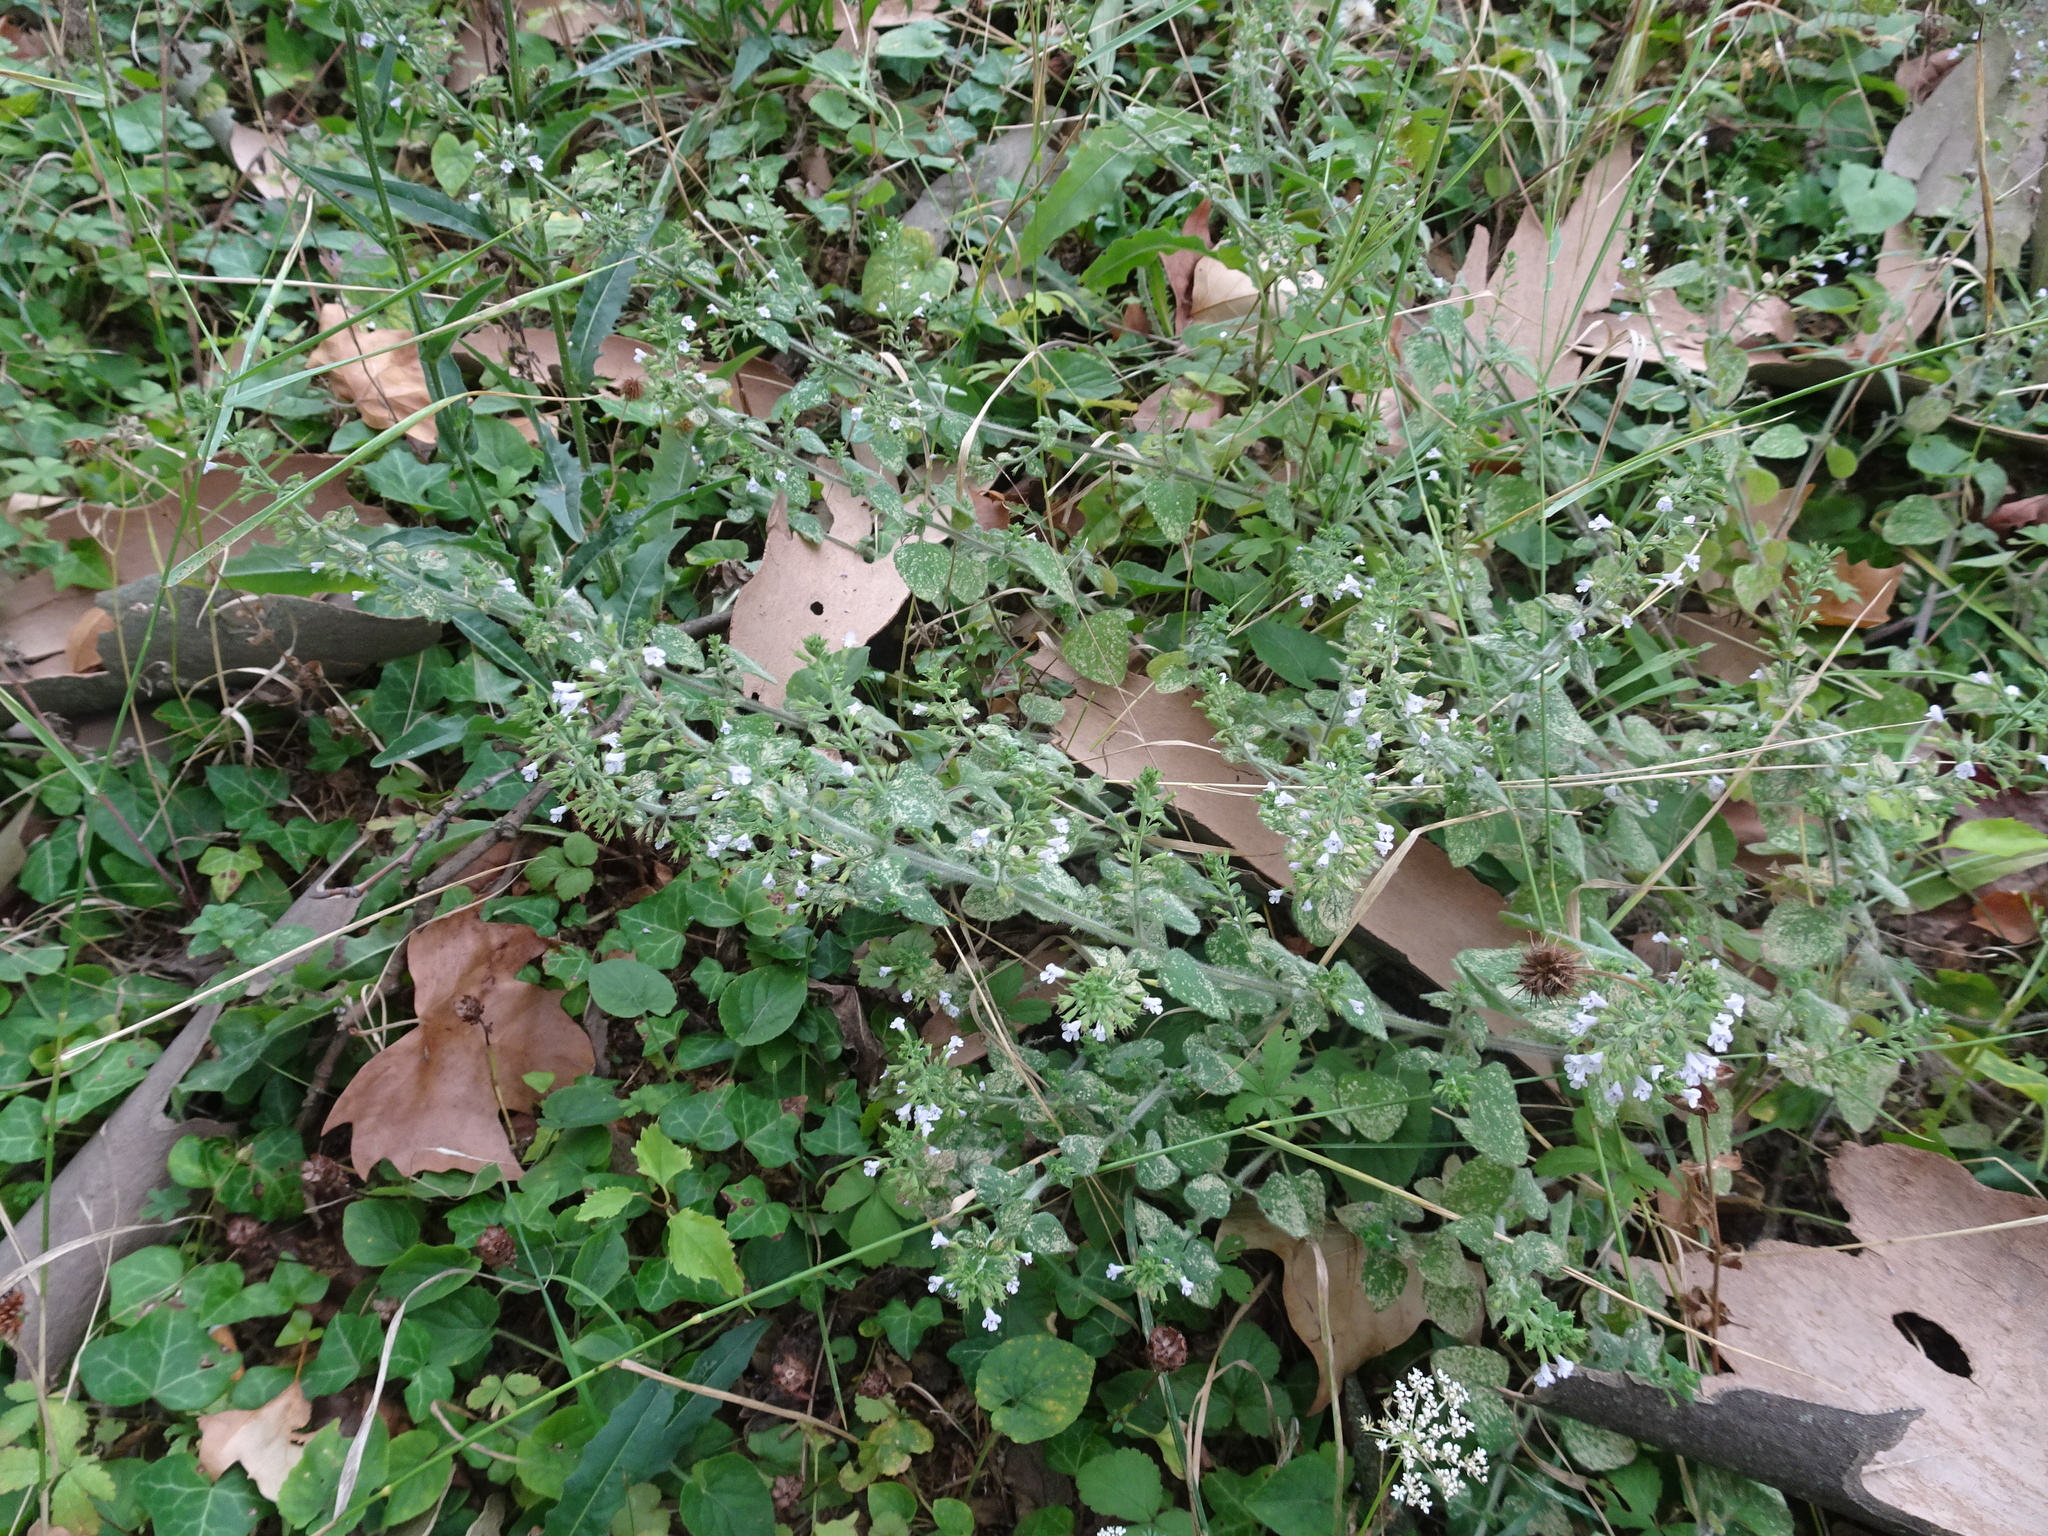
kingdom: Plantae
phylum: Tracheophyta
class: Magnoliopsida
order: Lamiales
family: Lamiaceae
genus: Clinopodium
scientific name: Clinopodium nepeta
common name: Lesser calamint
